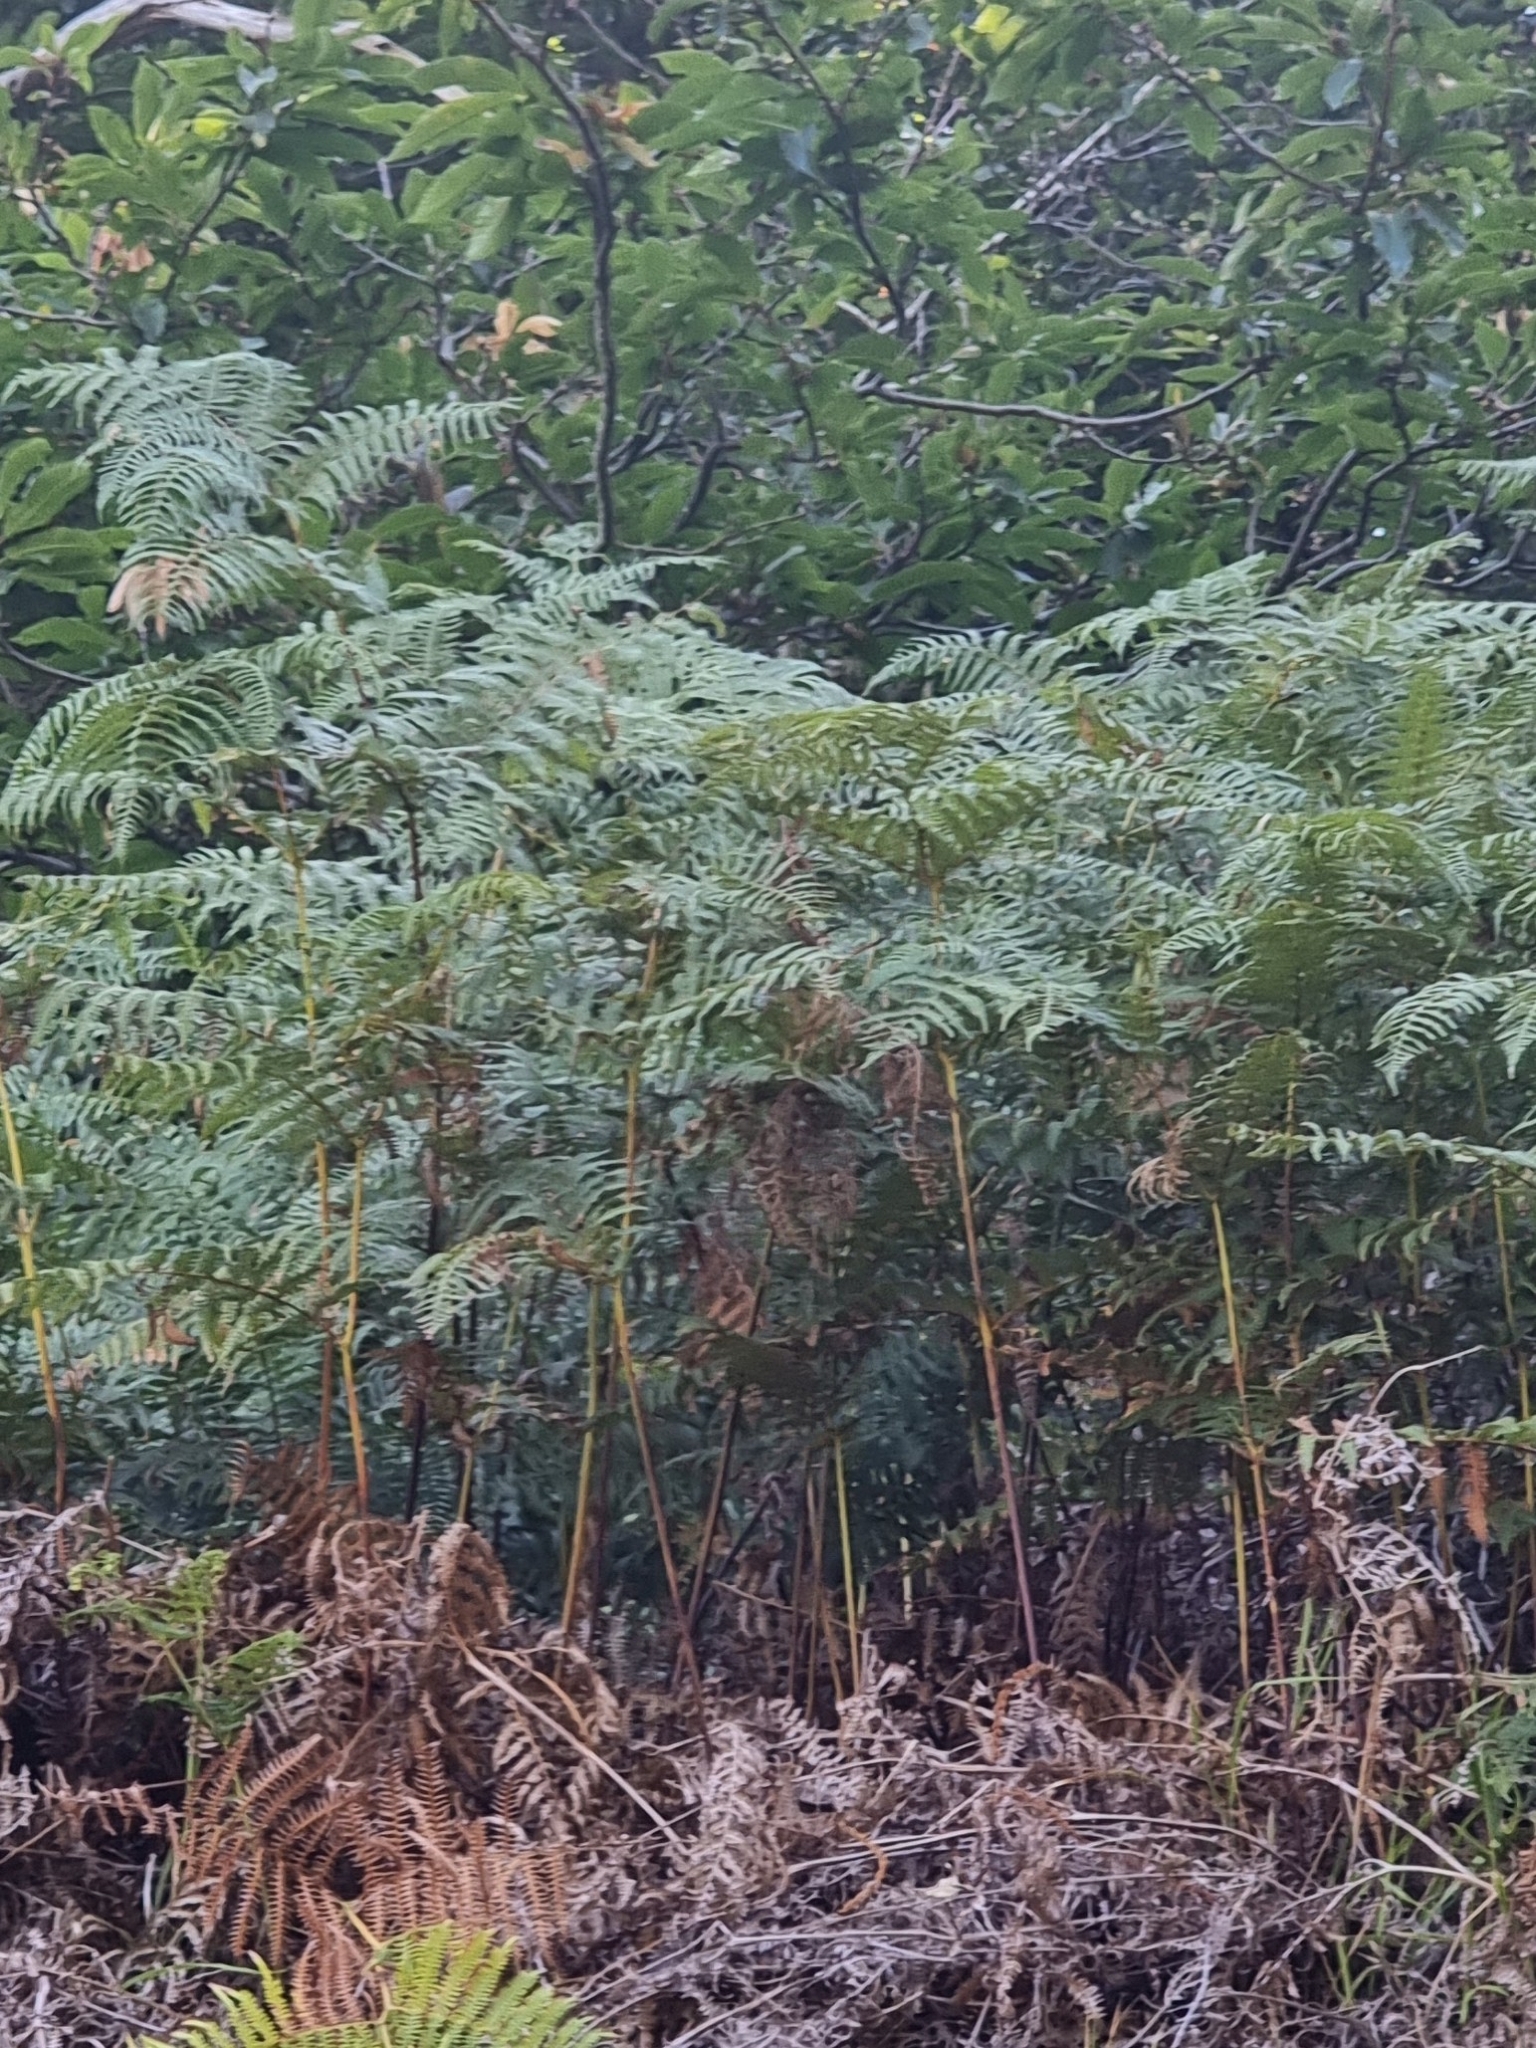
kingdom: Plantae
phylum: Tracheophyta
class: Polypodiopsida
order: Polypodiales
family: Dennstaedtiaceae
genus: Pteridium
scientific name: Pteridium aquilinum
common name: Bracken
